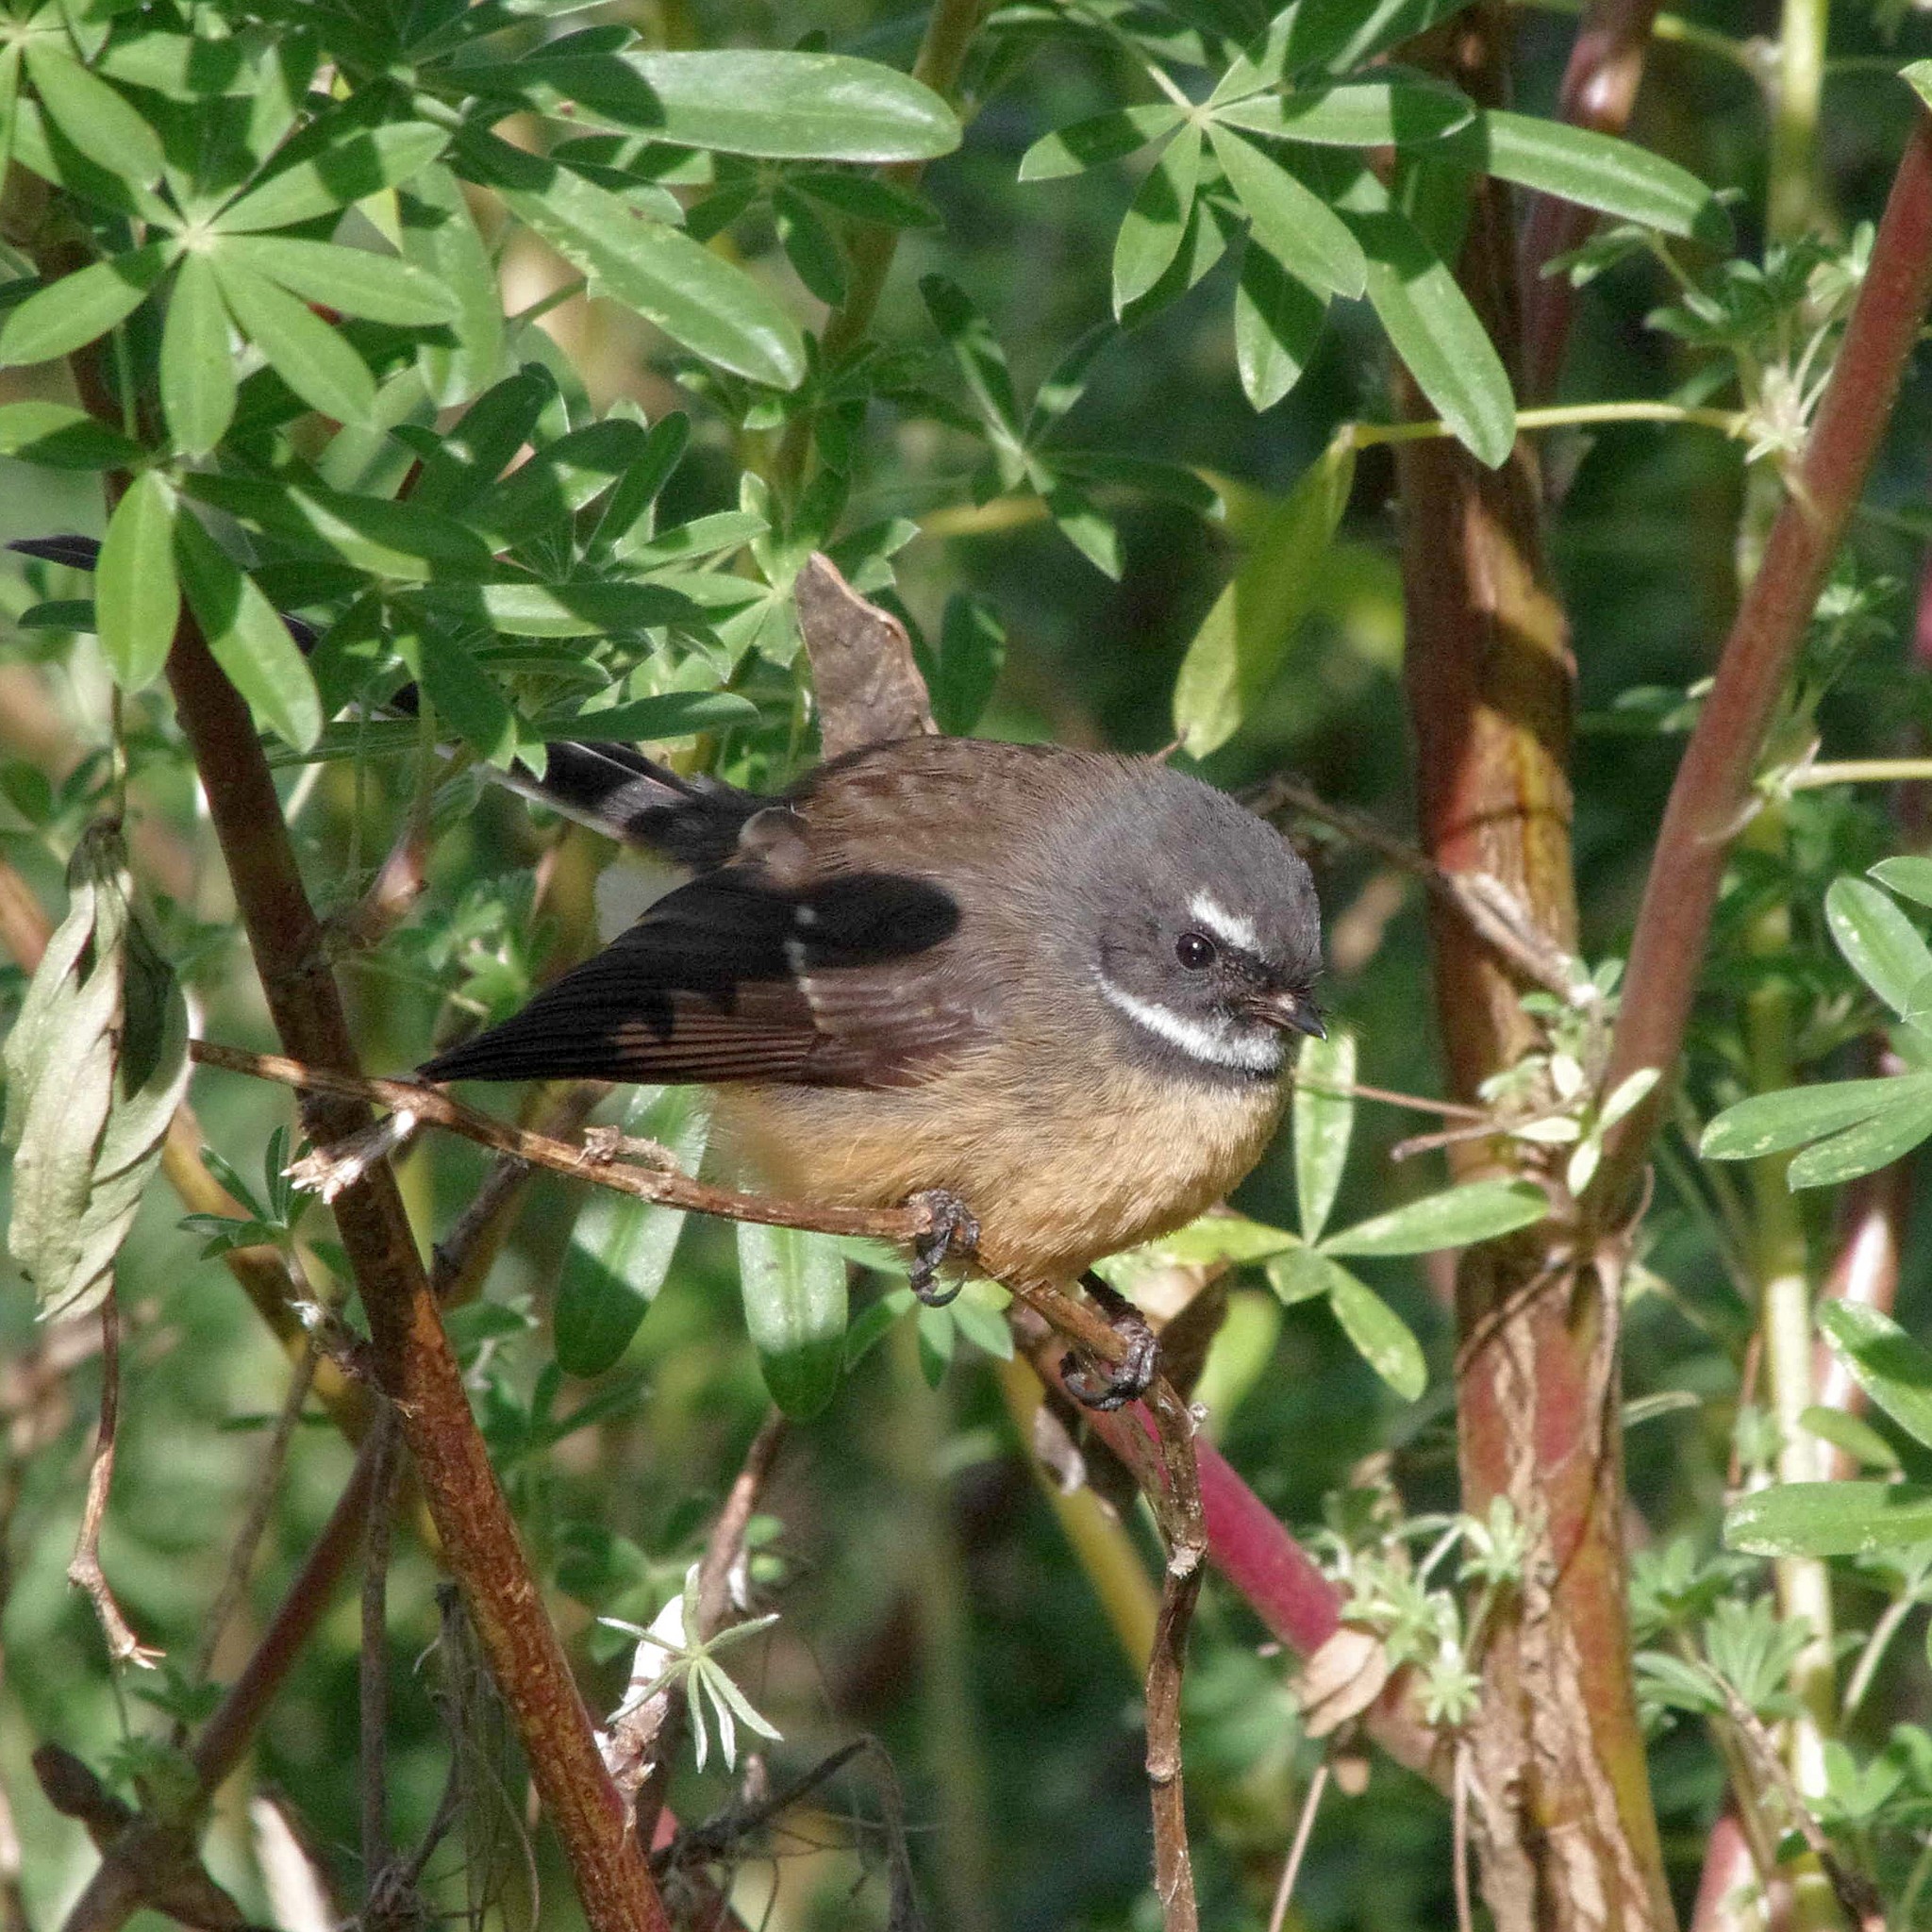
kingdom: Animalia
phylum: Chordata
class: Aves
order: Passeriformes
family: Rhipiduridae
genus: Rhipidura
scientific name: Rhipidura fuliginosa
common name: New zealand fantail
